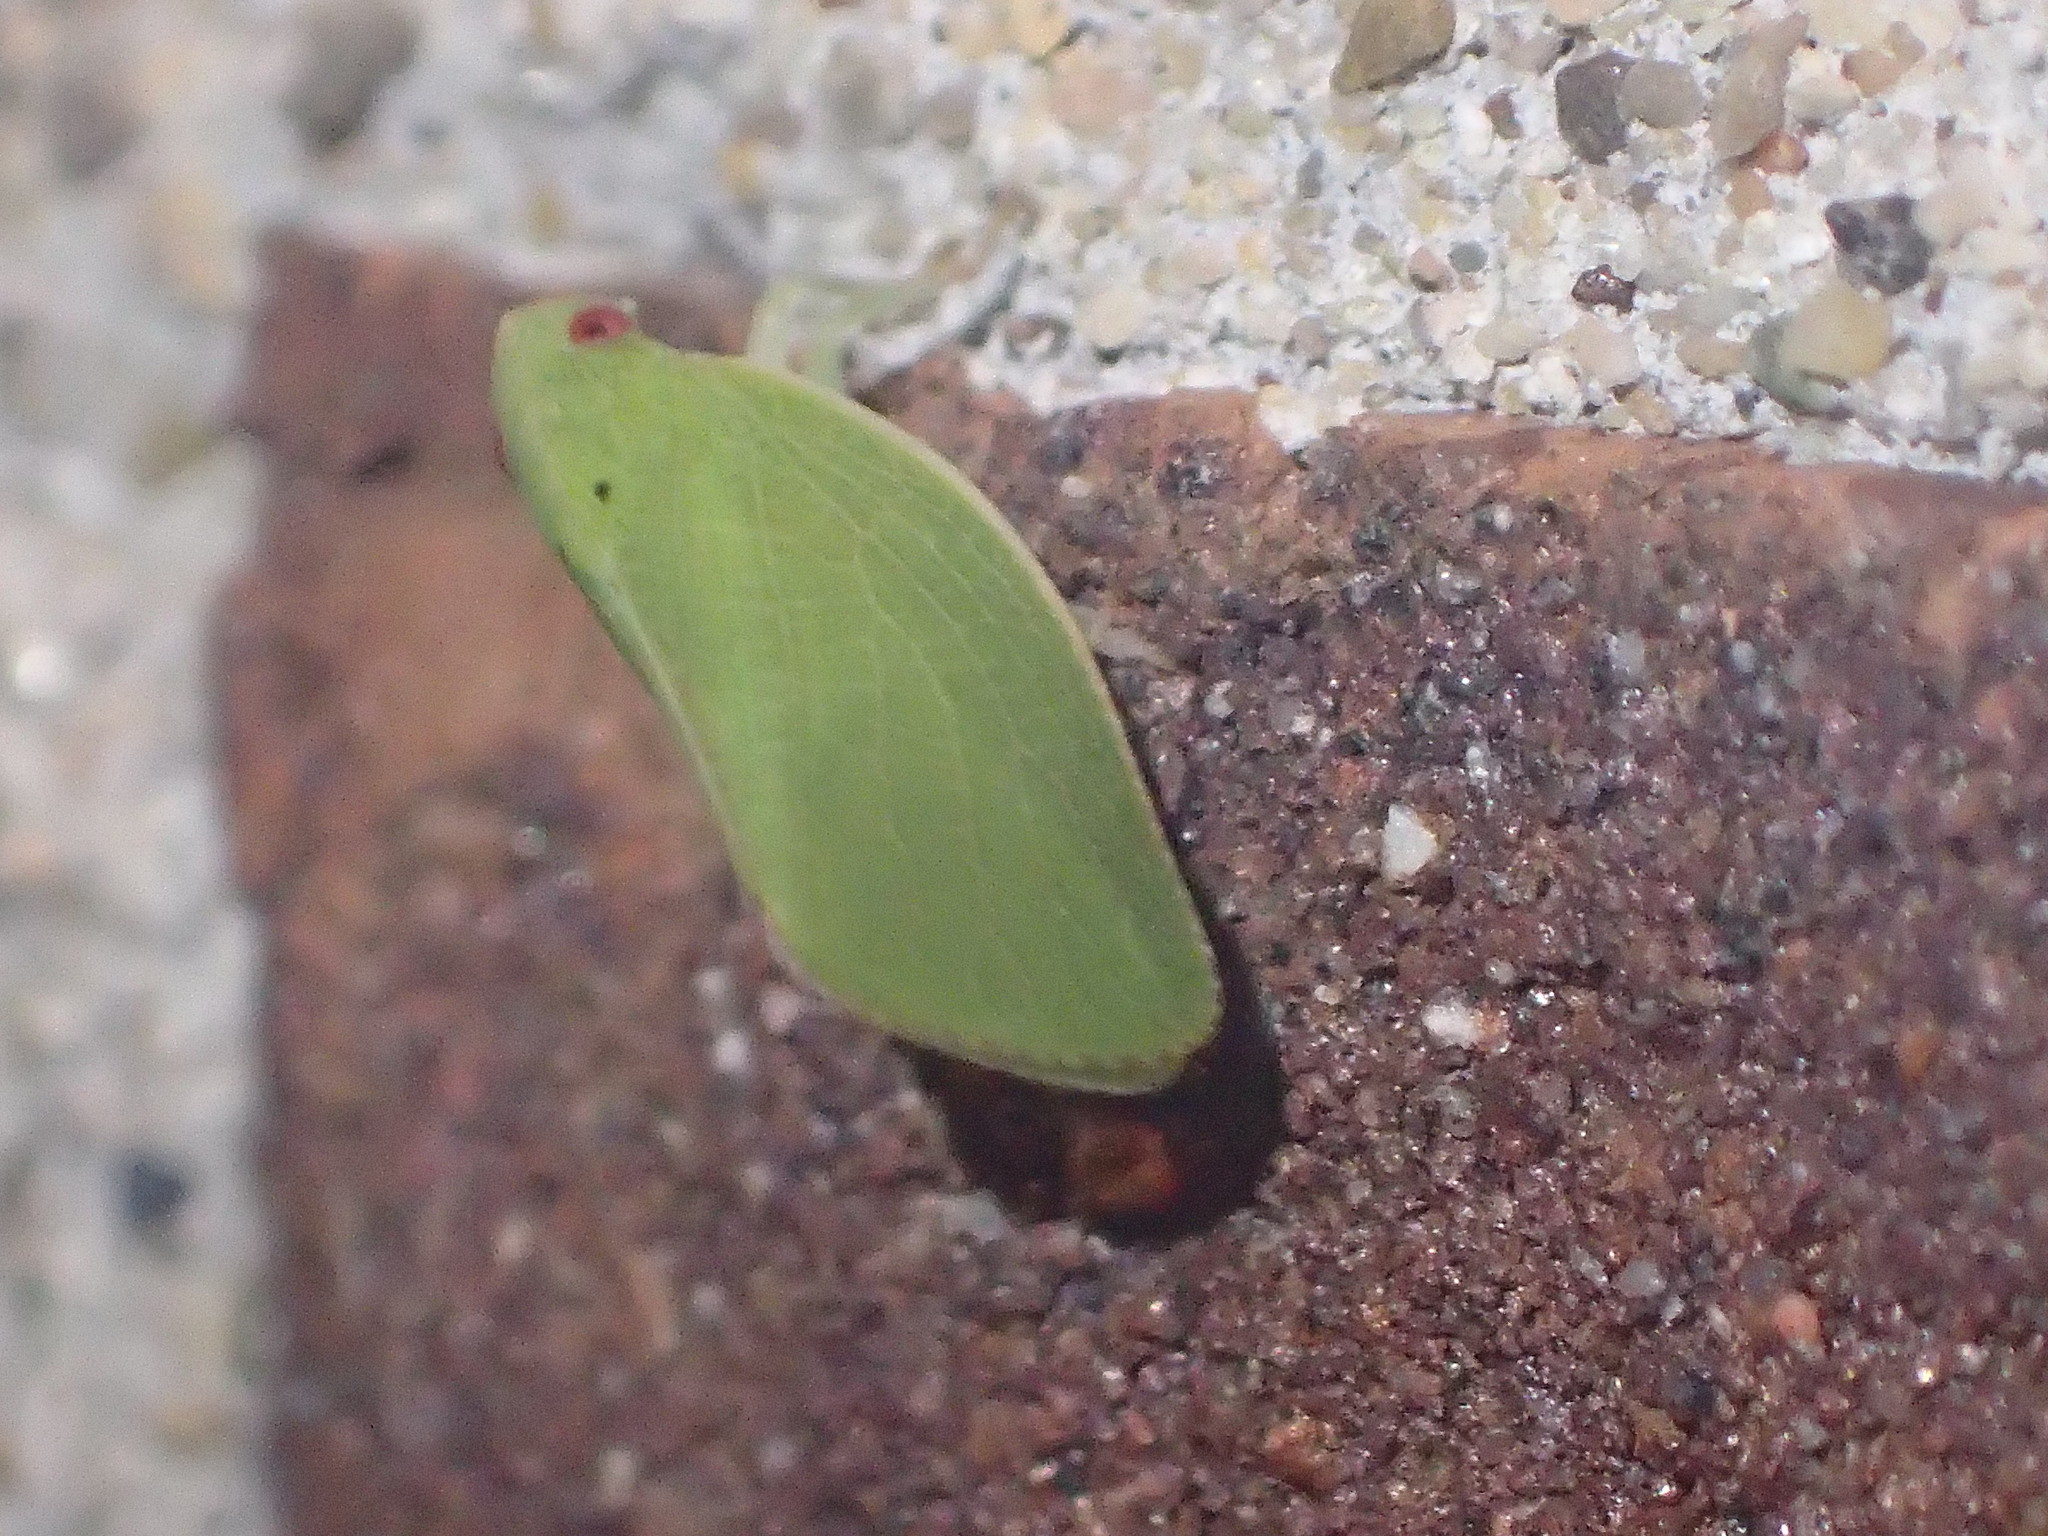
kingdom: Animalia
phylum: Arthropoda
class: Insecta
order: Hemiptera
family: Acanaloniidae
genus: Acanalonia
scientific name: Acanalonia conica
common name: Green cone-headed planthopper
